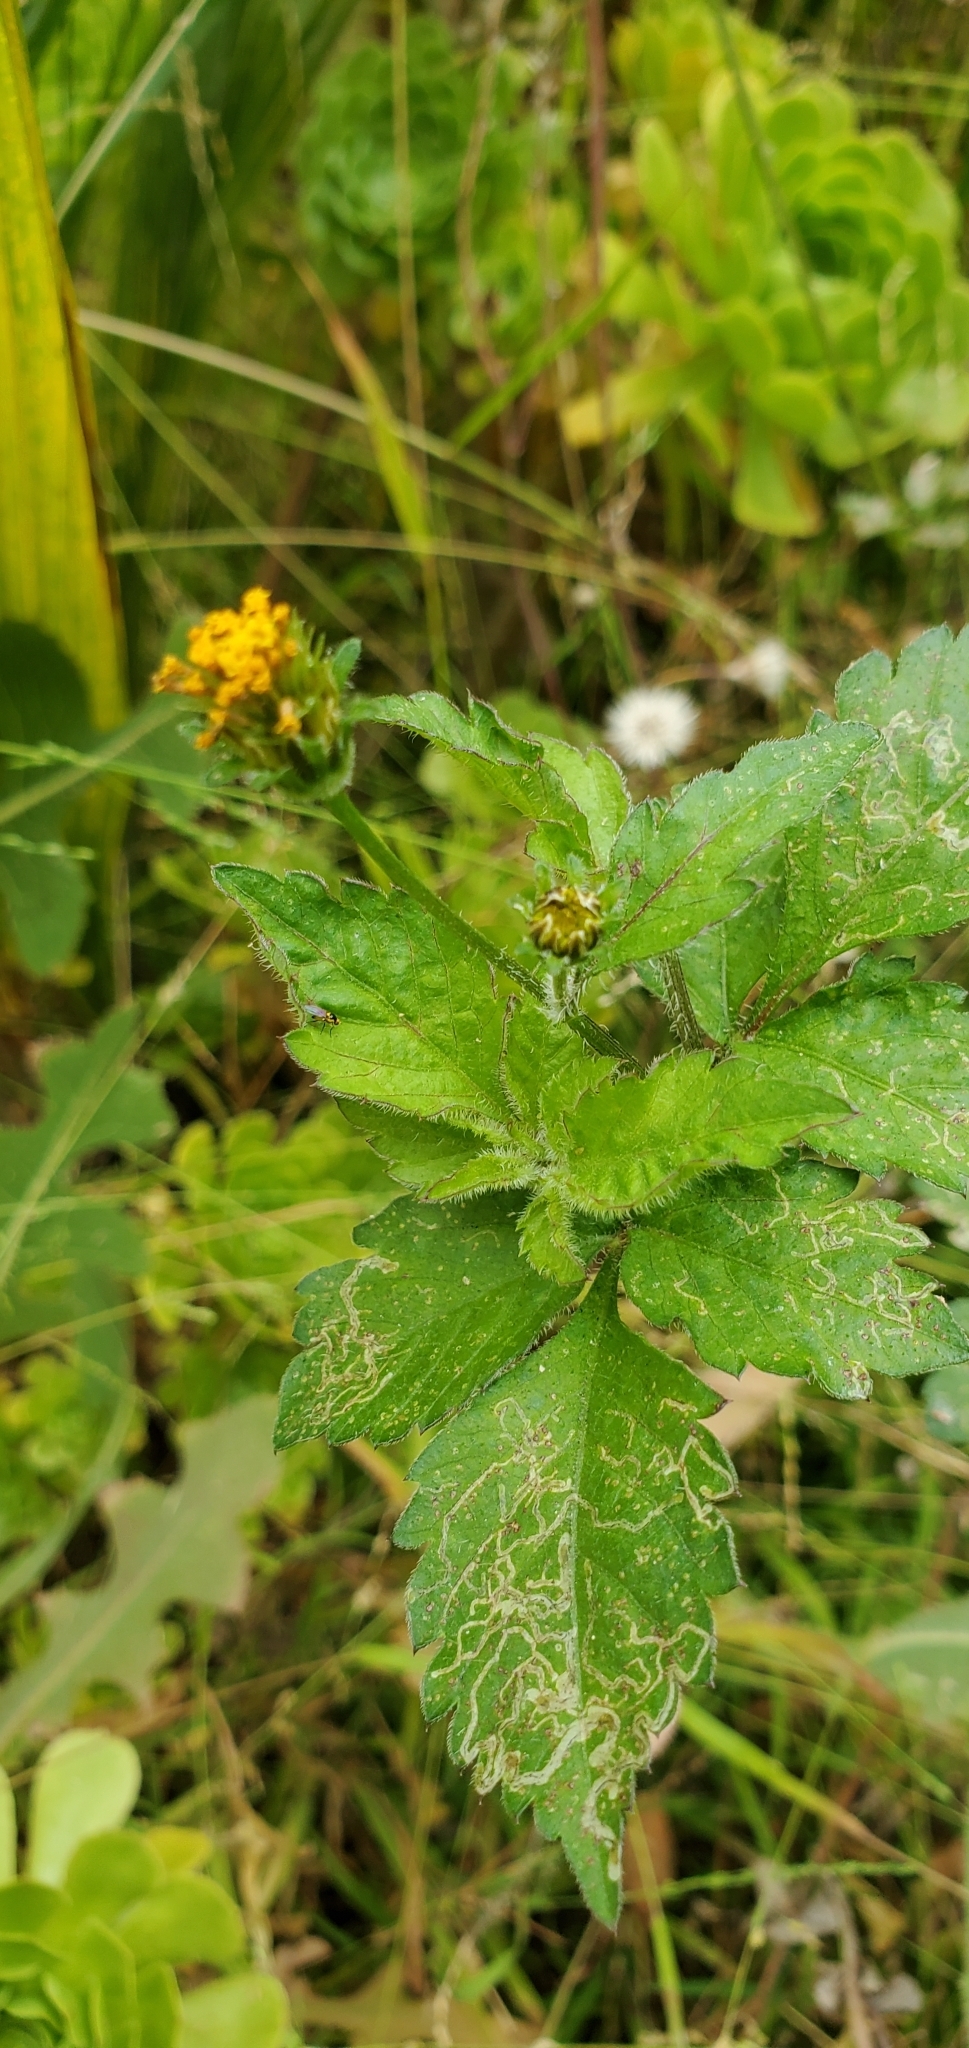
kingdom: Plantae
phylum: Tracheophyta
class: Magnoliopsida
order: Asterales
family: Asteraceae
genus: Bidens
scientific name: Bidens pilosa
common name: Black-jack
